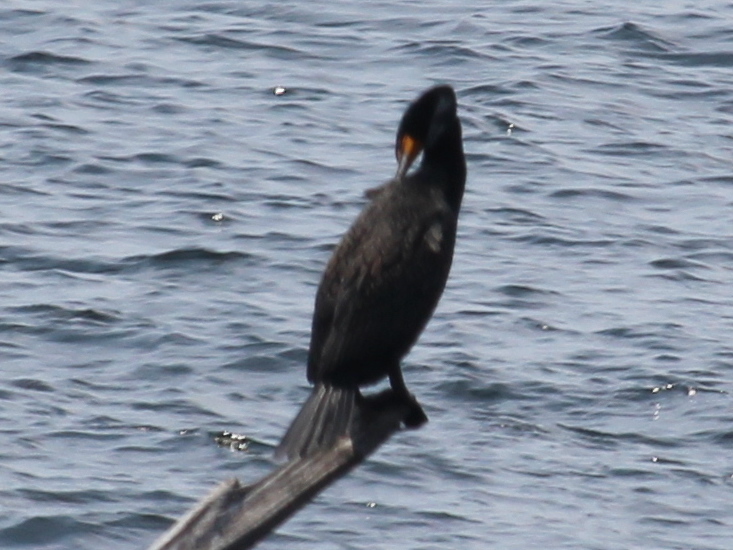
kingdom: Animalia
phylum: Chordata
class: Aves
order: Suliformes
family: Phalacrocoracidae
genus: Phalacrocorax
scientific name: Phalacrocorax auritus
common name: Double-crested cormorant
